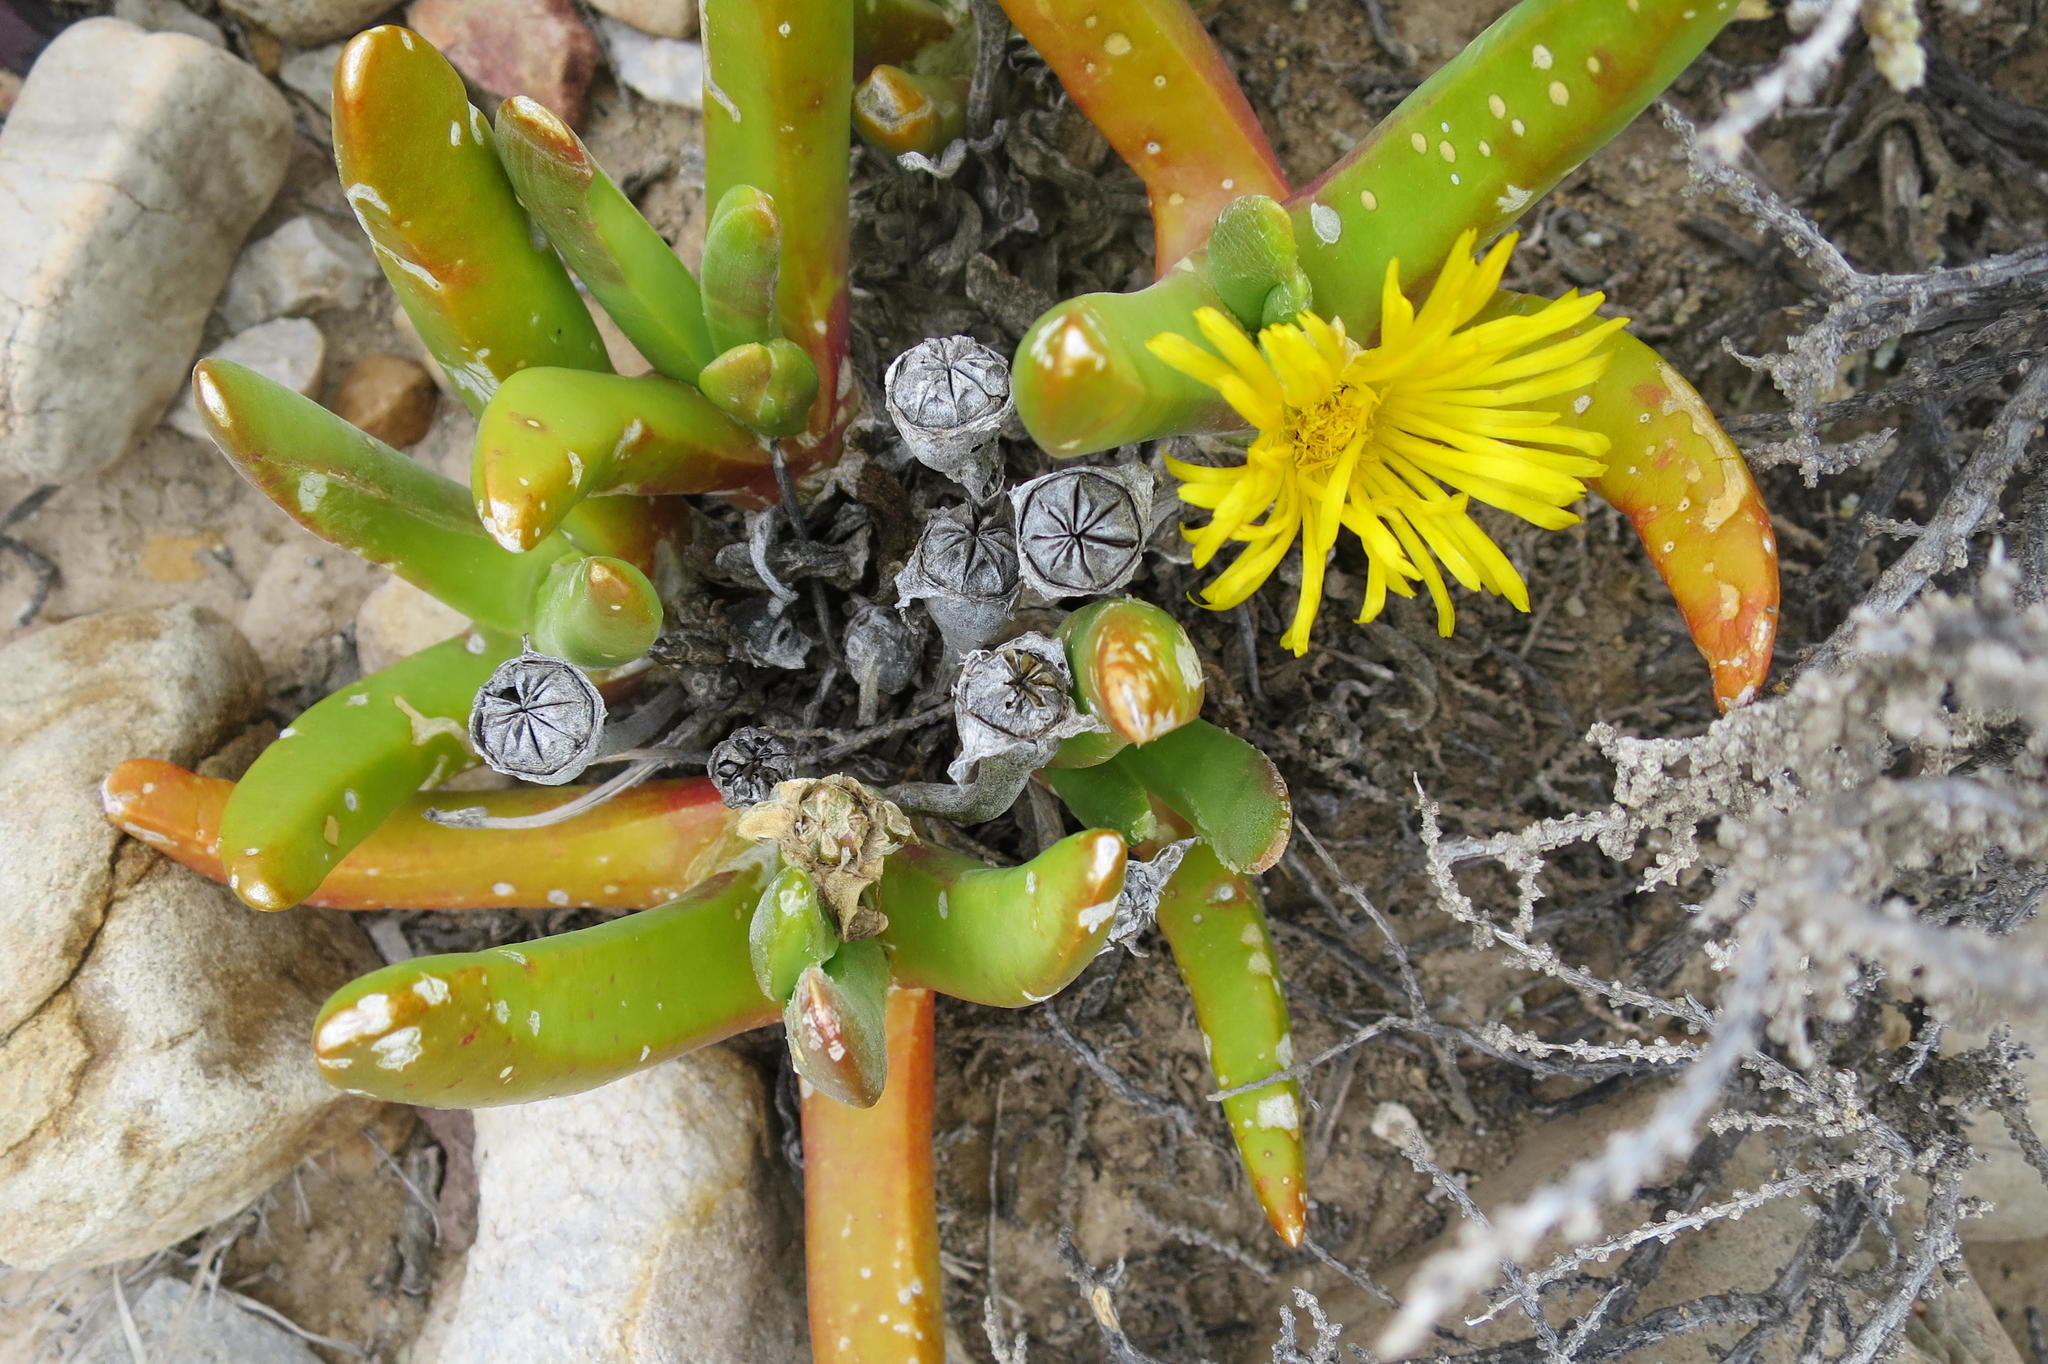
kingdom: Plantae
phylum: Tracheophyta
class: Magnoliopsida
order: Caryophyllales
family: Aizoaceae
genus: Glottiphyllum
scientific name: Glottiphyllum regium
